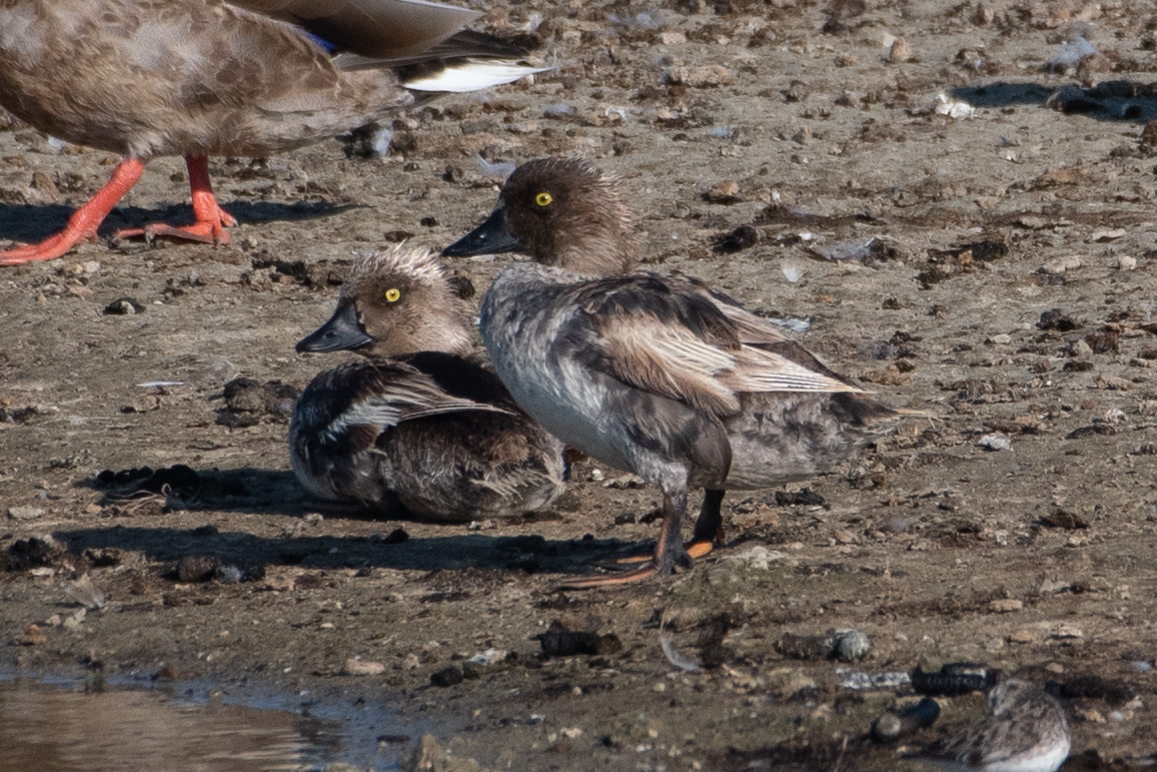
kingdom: Animalia
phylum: Chordata
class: Aves
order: Anseriformes
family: Anatidae
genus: Bucephala
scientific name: Bucephala clangula
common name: Common goldeneye
